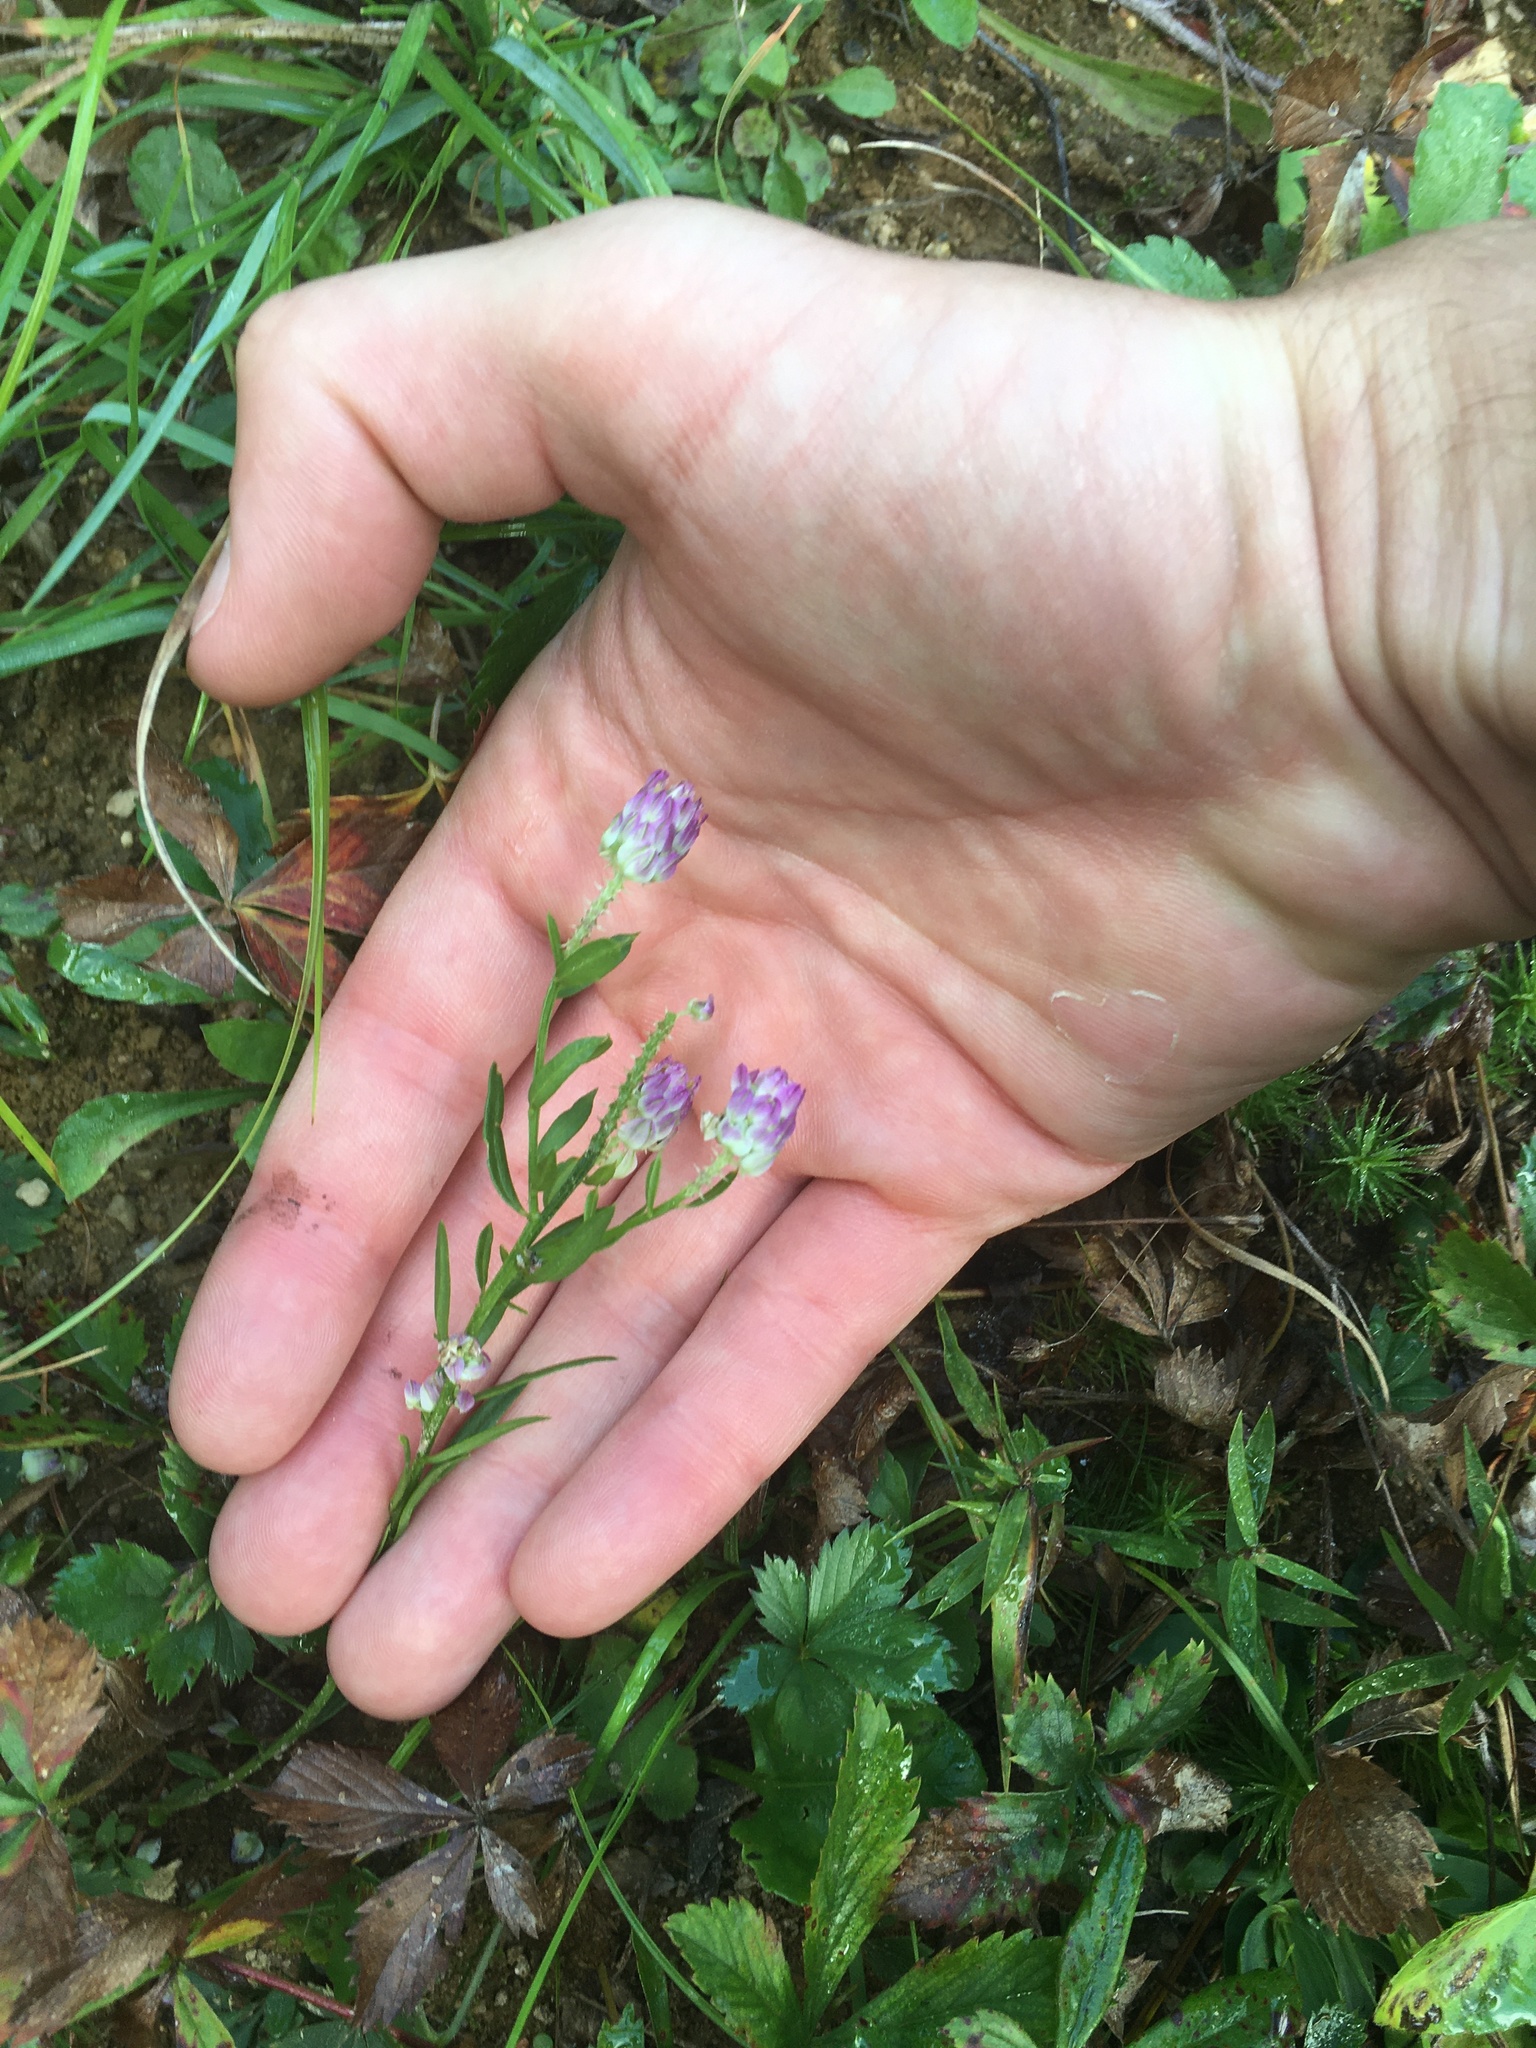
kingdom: Plantae
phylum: Tracheophyta
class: Magnoliopsida
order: Fabales
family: Polygalaceae
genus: Polygala
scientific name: Polygala sanguinea
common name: Blood milkwort
